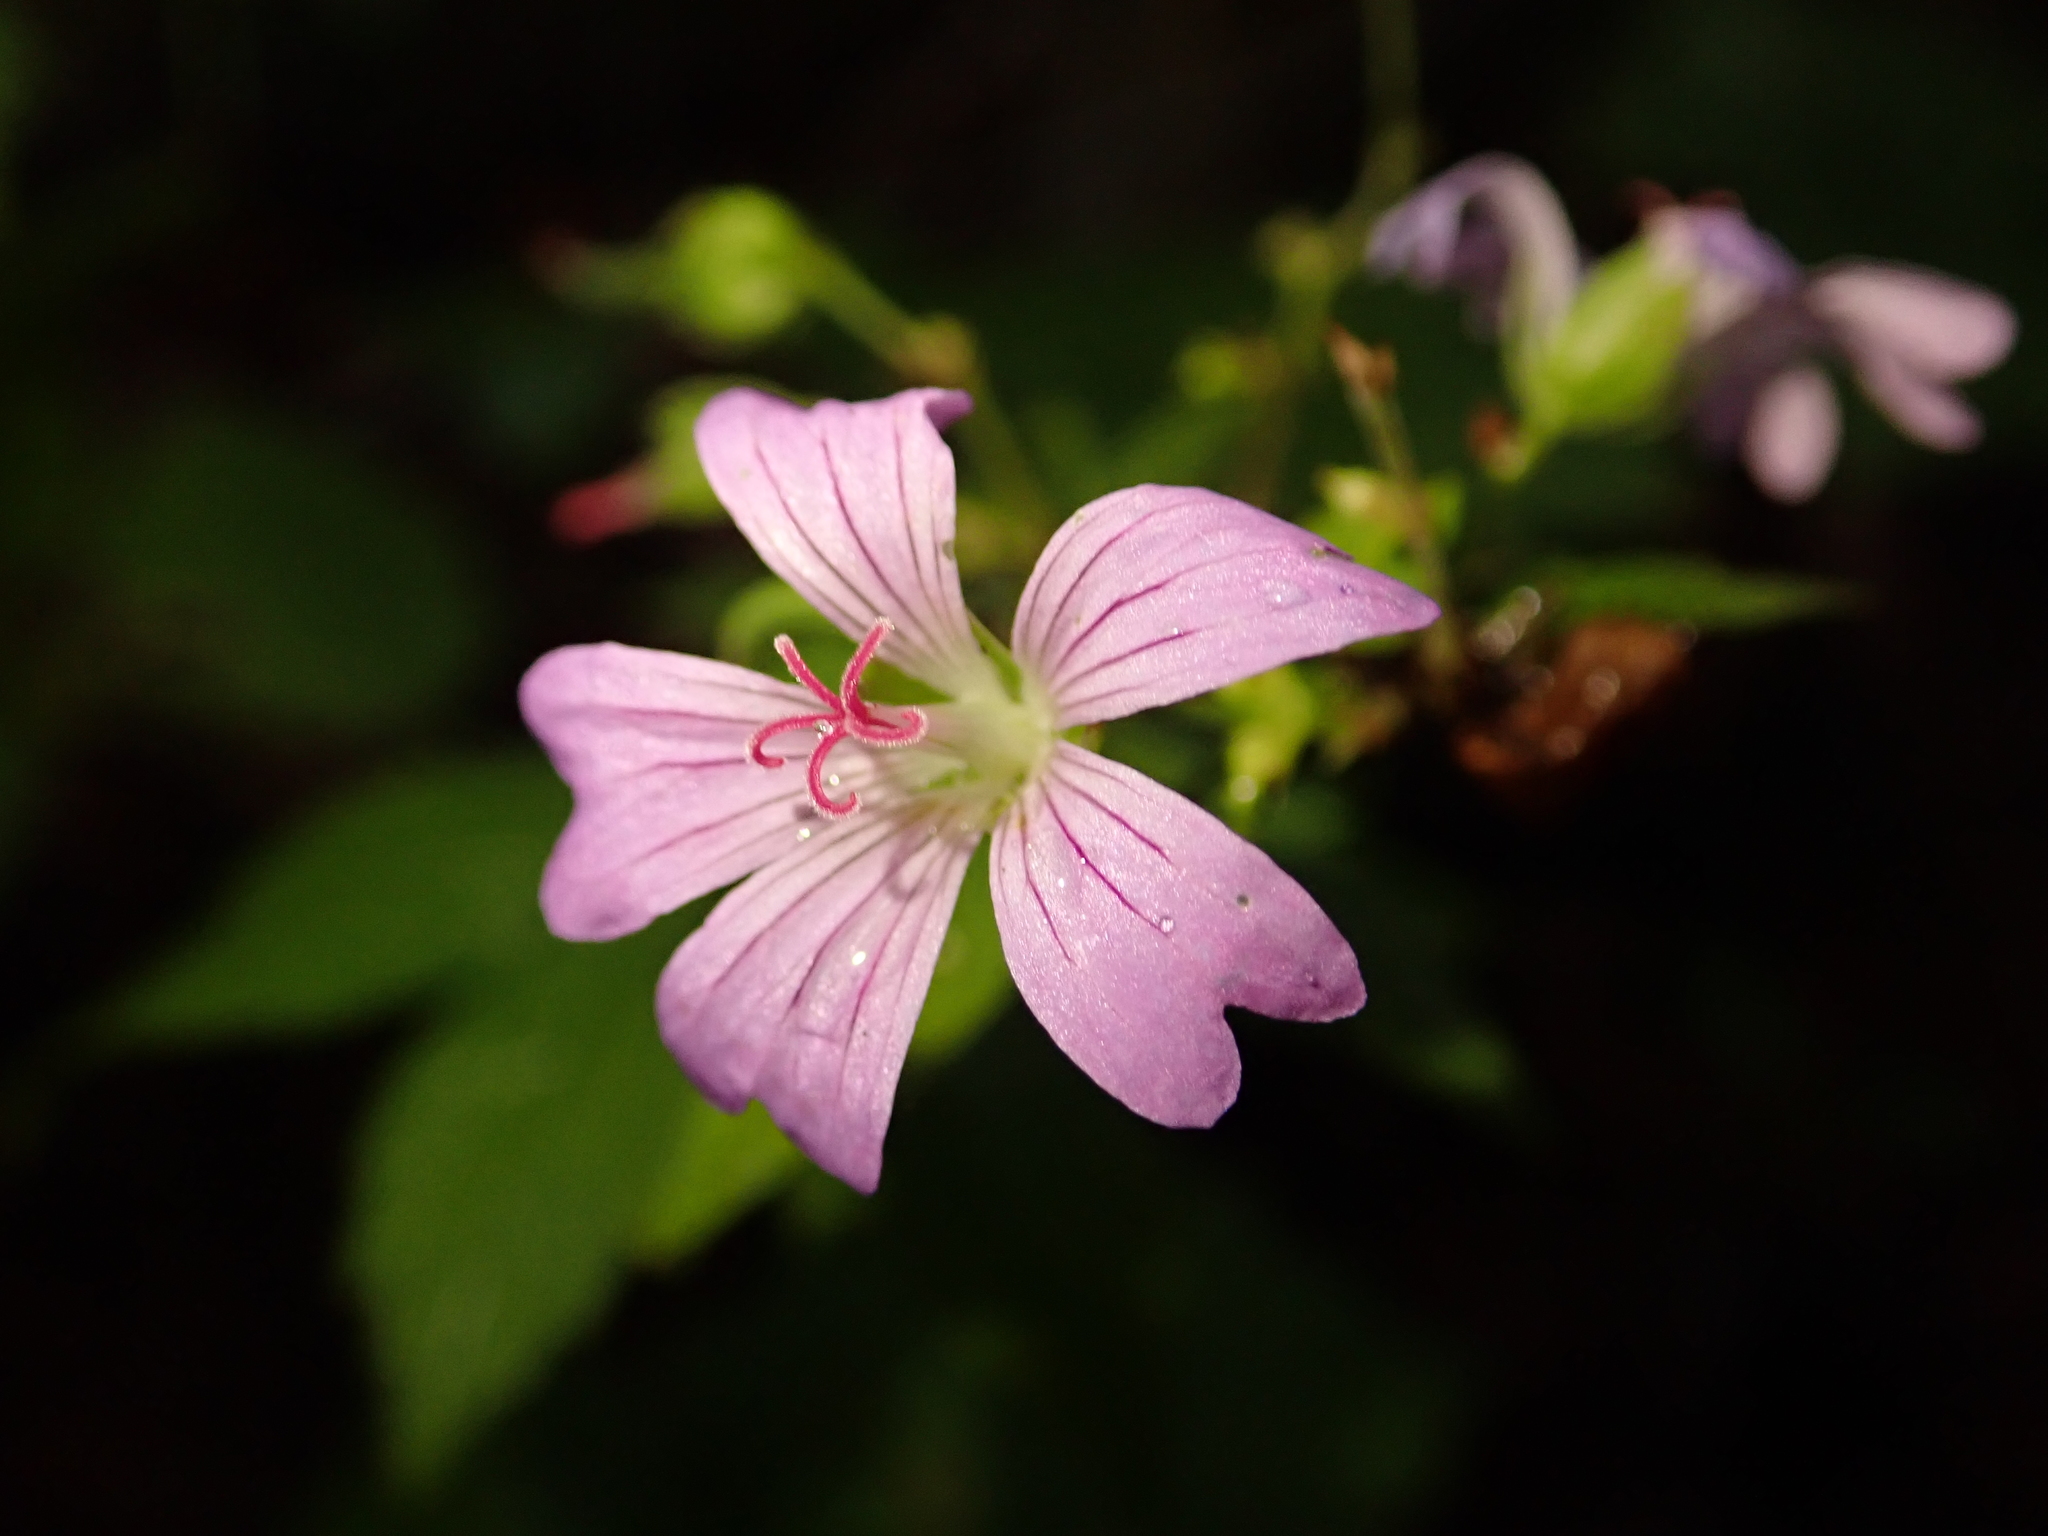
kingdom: Plantae
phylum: Tracheophyta
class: Magnoliopsida
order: Geraniales
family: Geraniaceae
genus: Geranium
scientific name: Geranium nodosum
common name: Knotted crane's-bill
